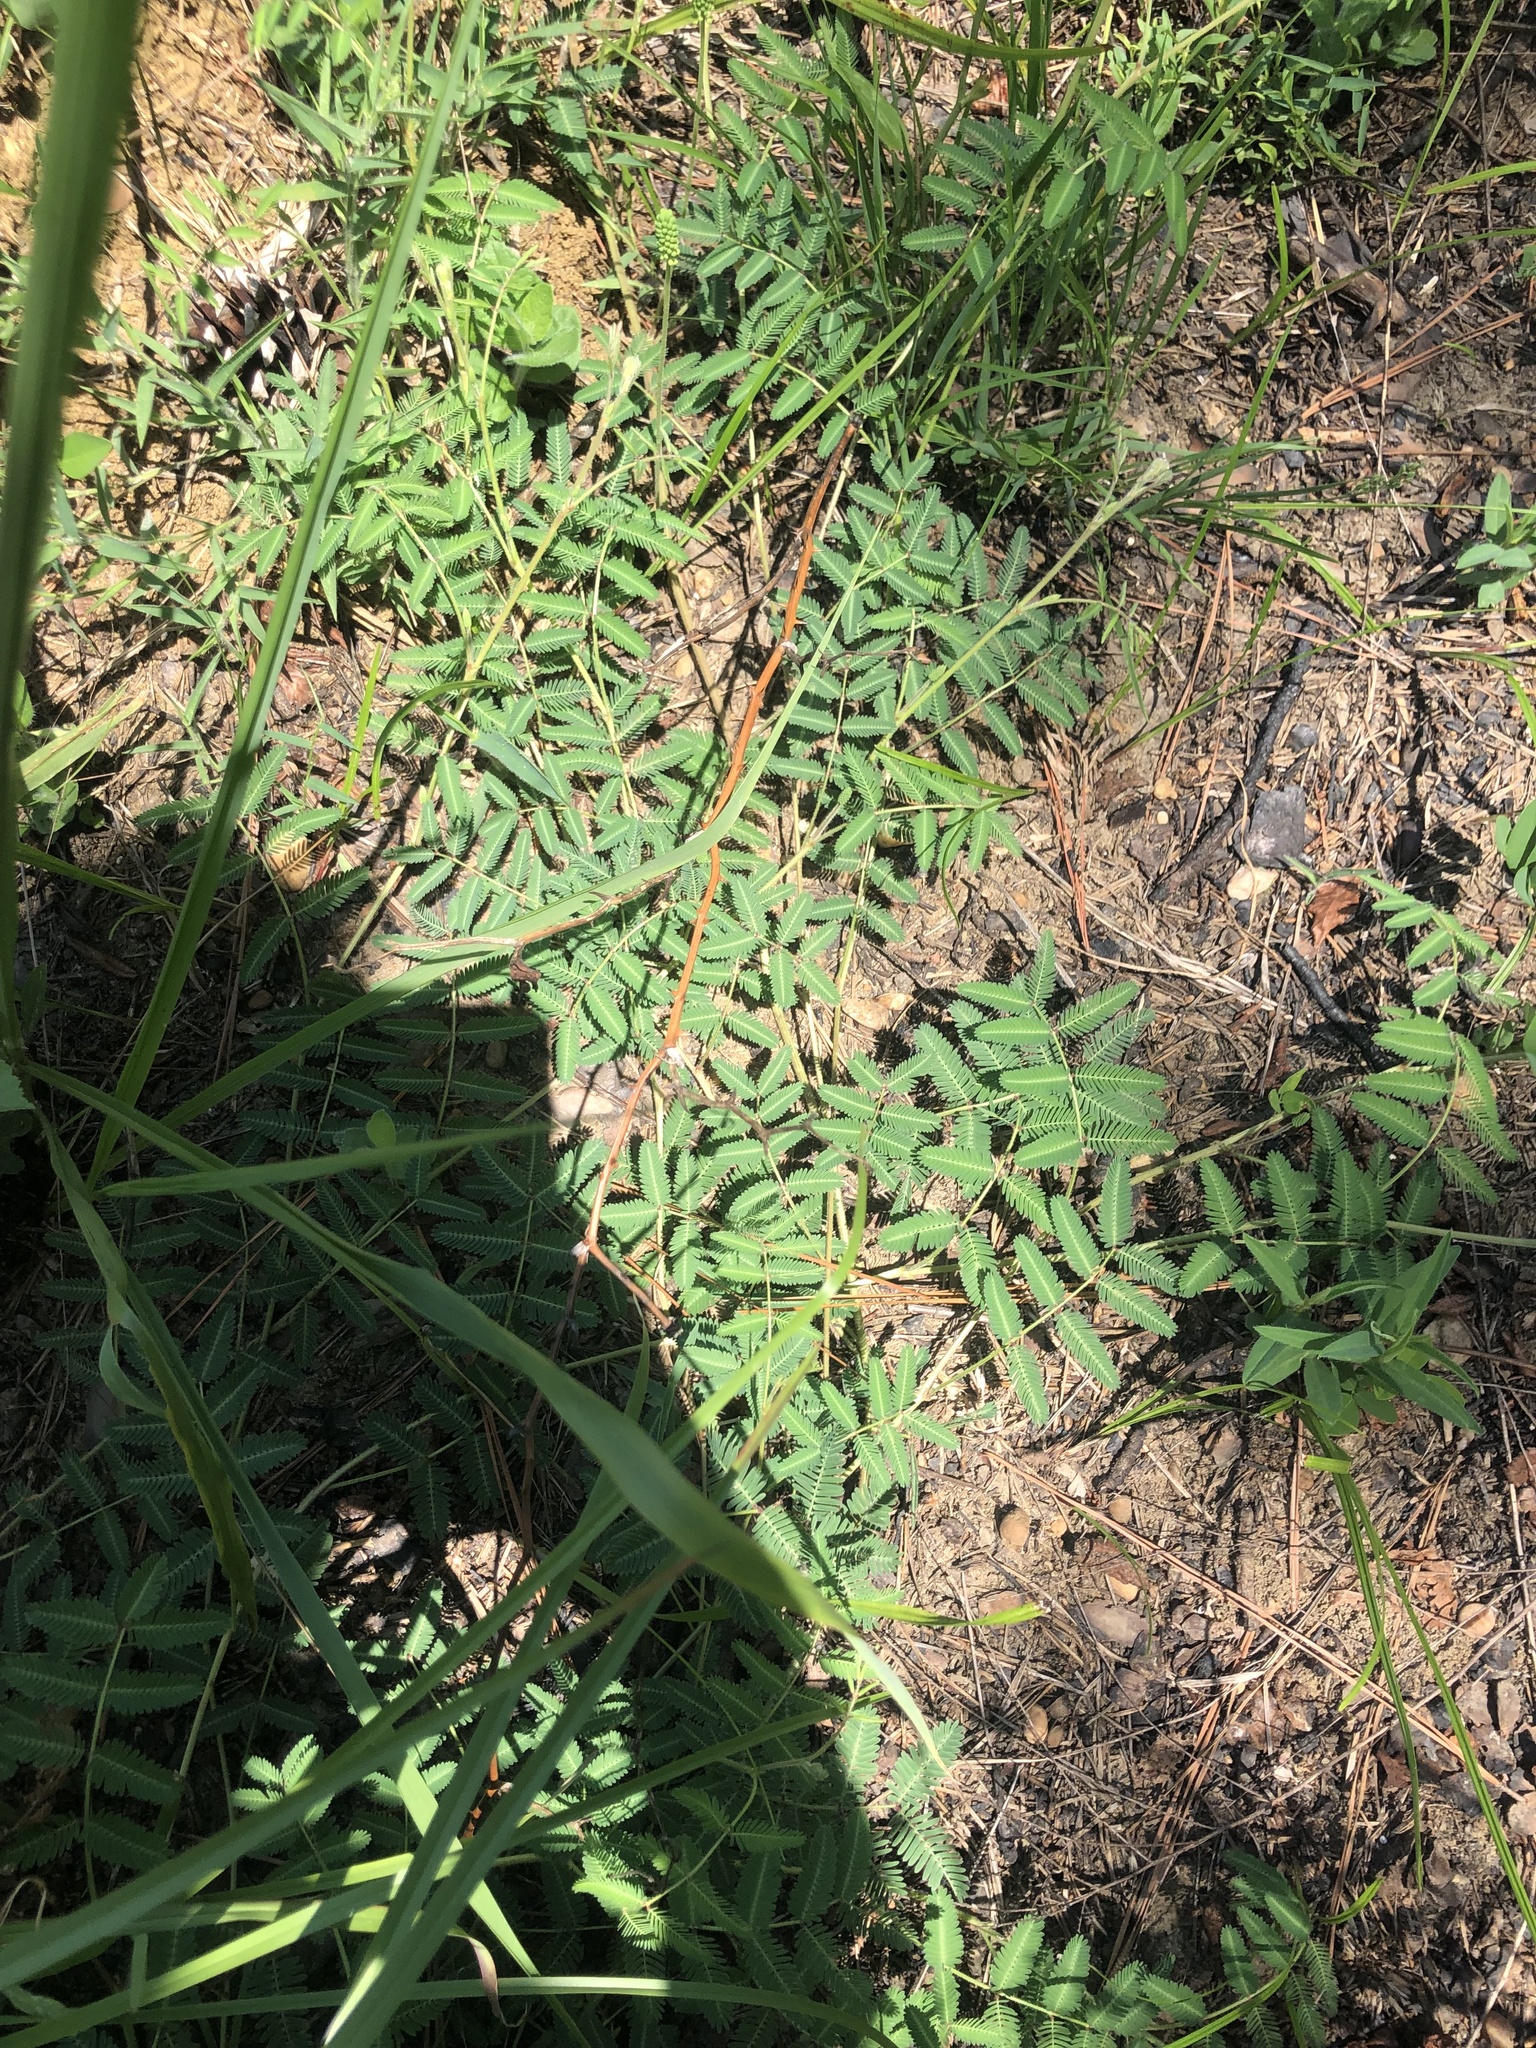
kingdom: Plantae
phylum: Tracheophyta
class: Magnoliopsida
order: Fabales
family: Fabaceae
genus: Neptunia
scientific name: Neptunia lutea
